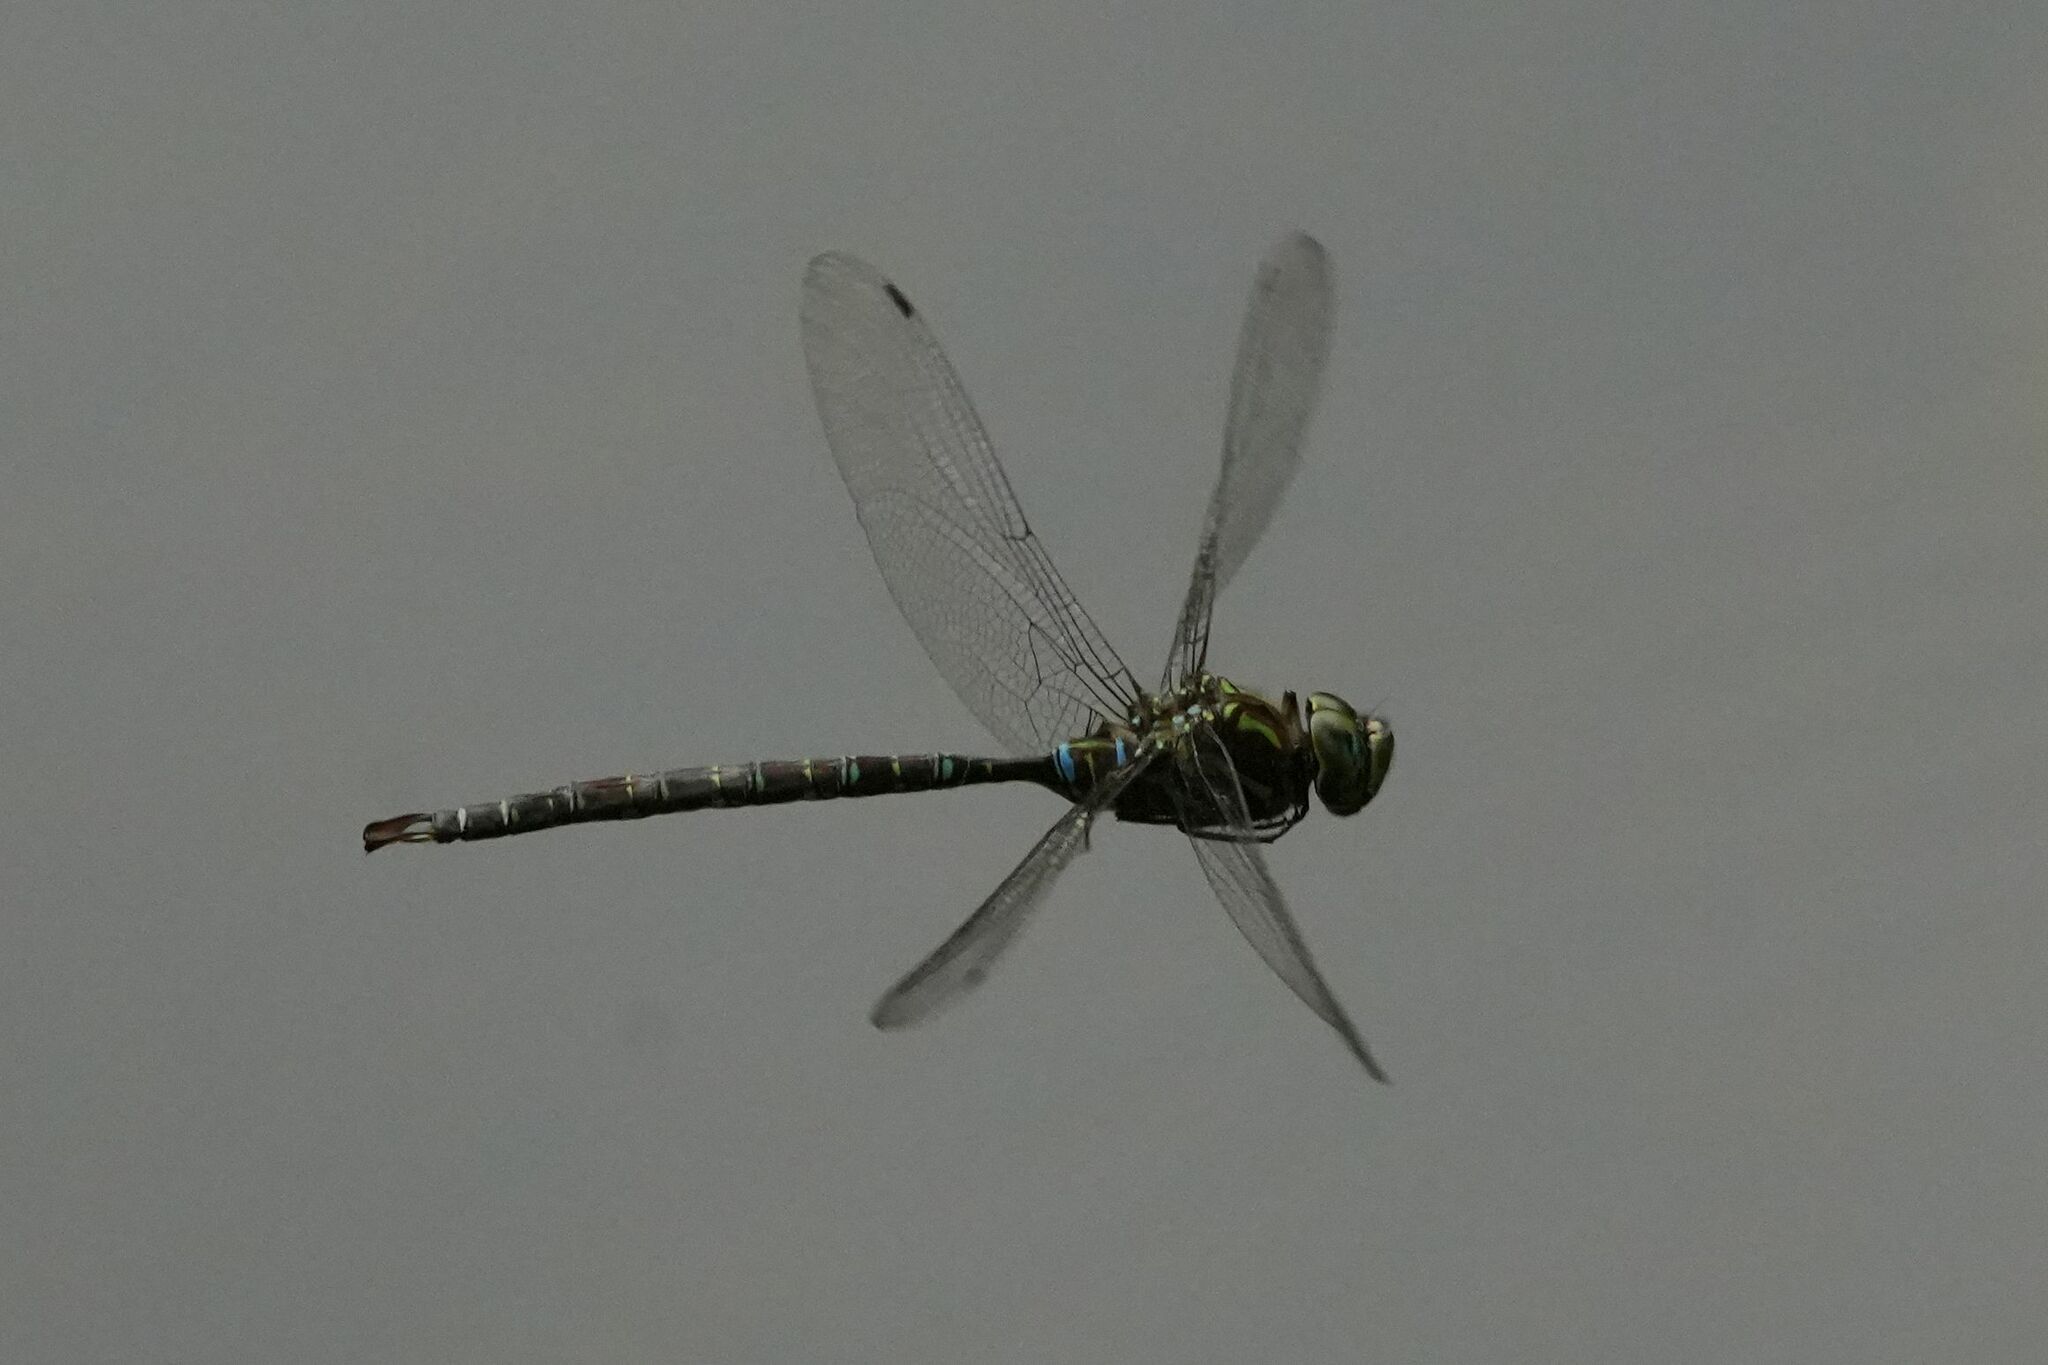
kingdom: Animalia
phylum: Arthropoda
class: Insecta
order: Odonata
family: Aeshnidae
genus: Aeshna
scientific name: Aeshna umbrosa
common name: Shadow darner
